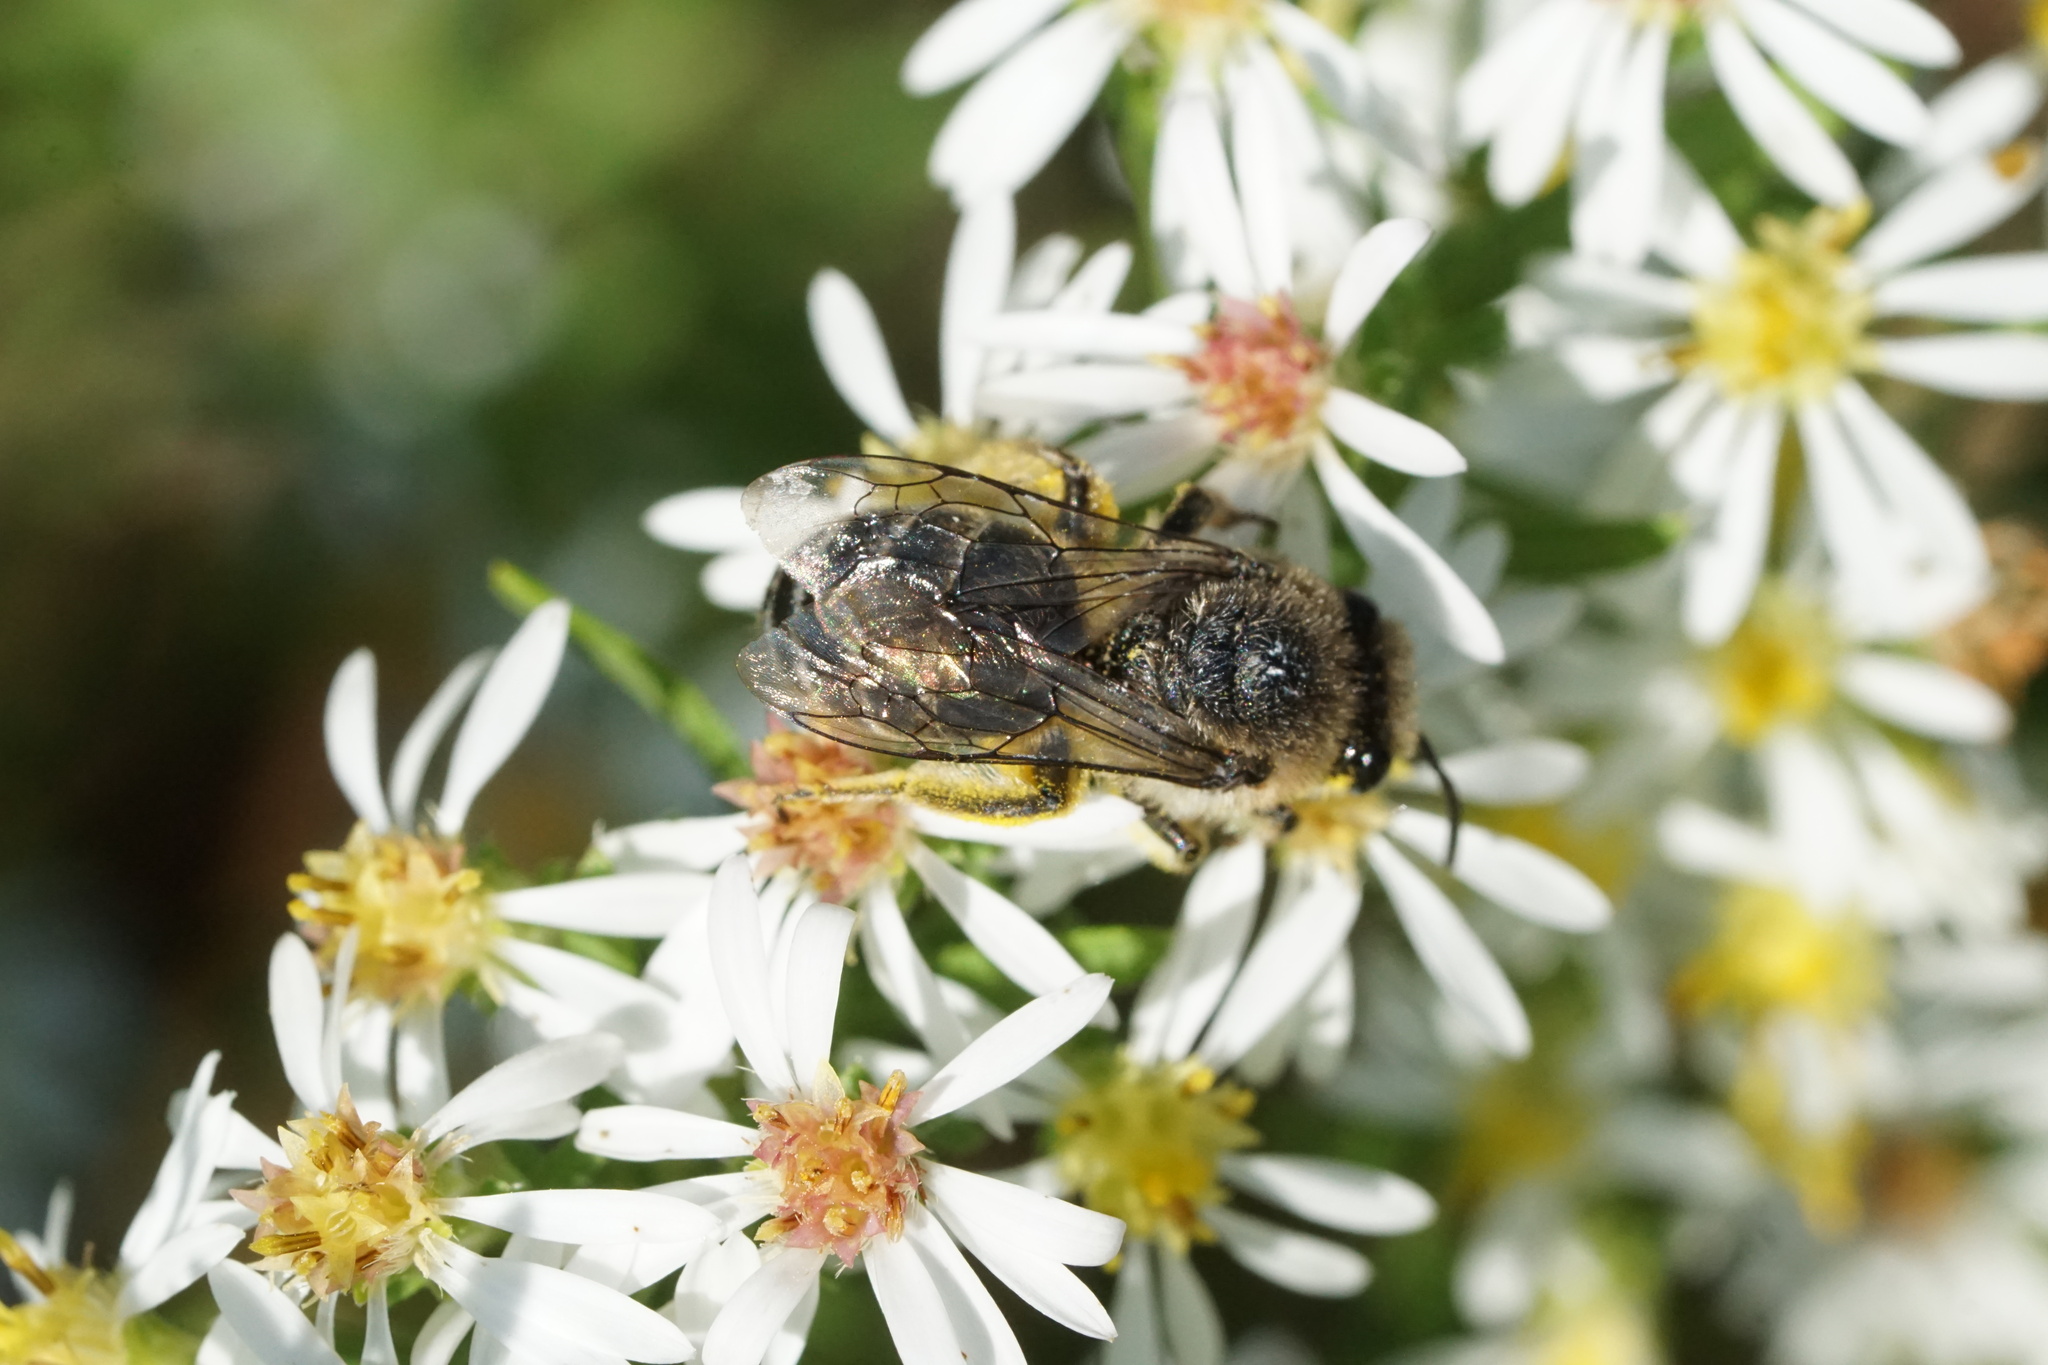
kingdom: Animalia
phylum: Arthropoda
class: Insecta
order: Hymenoptera
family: Colletidae
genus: Colletes
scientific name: Colletes compactus
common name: Aster cellophane bee
